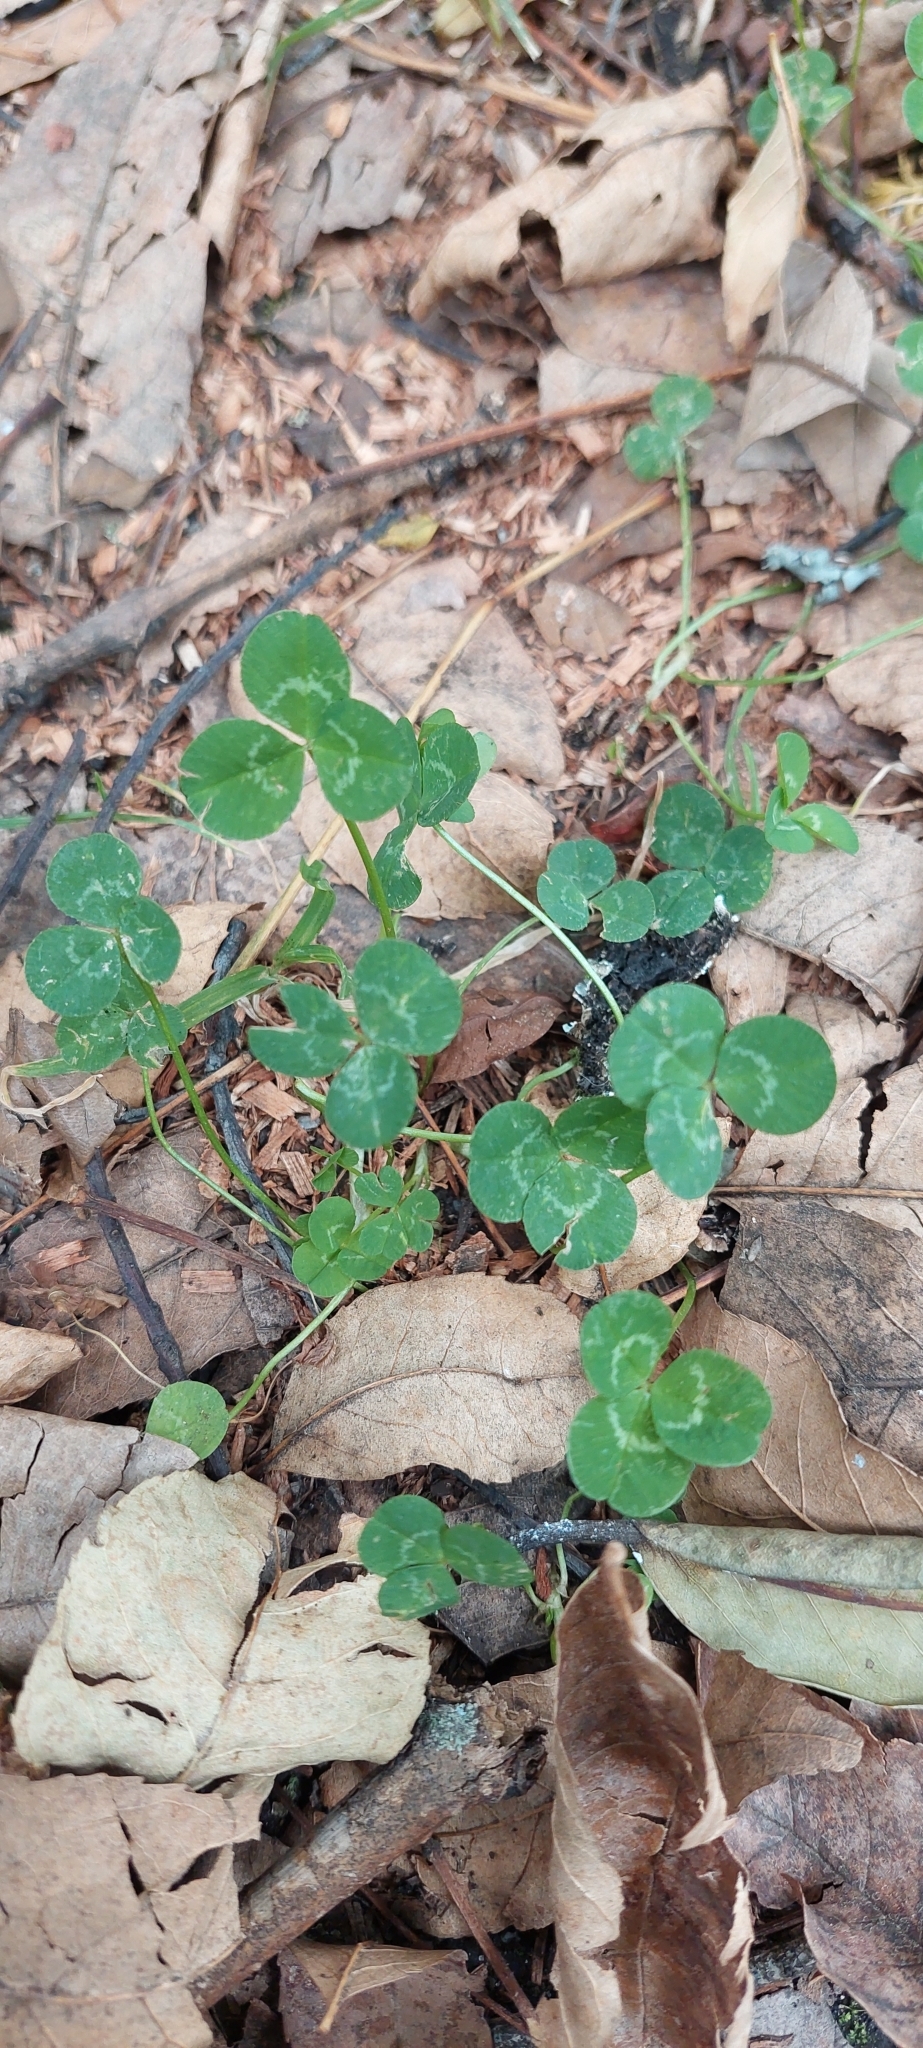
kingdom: Plantae
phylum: Tracheophyta
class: Magnoliopsida
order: Fabales
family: Fabaceae
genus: Trifolium
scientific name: Trifolium repens
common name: White clover
